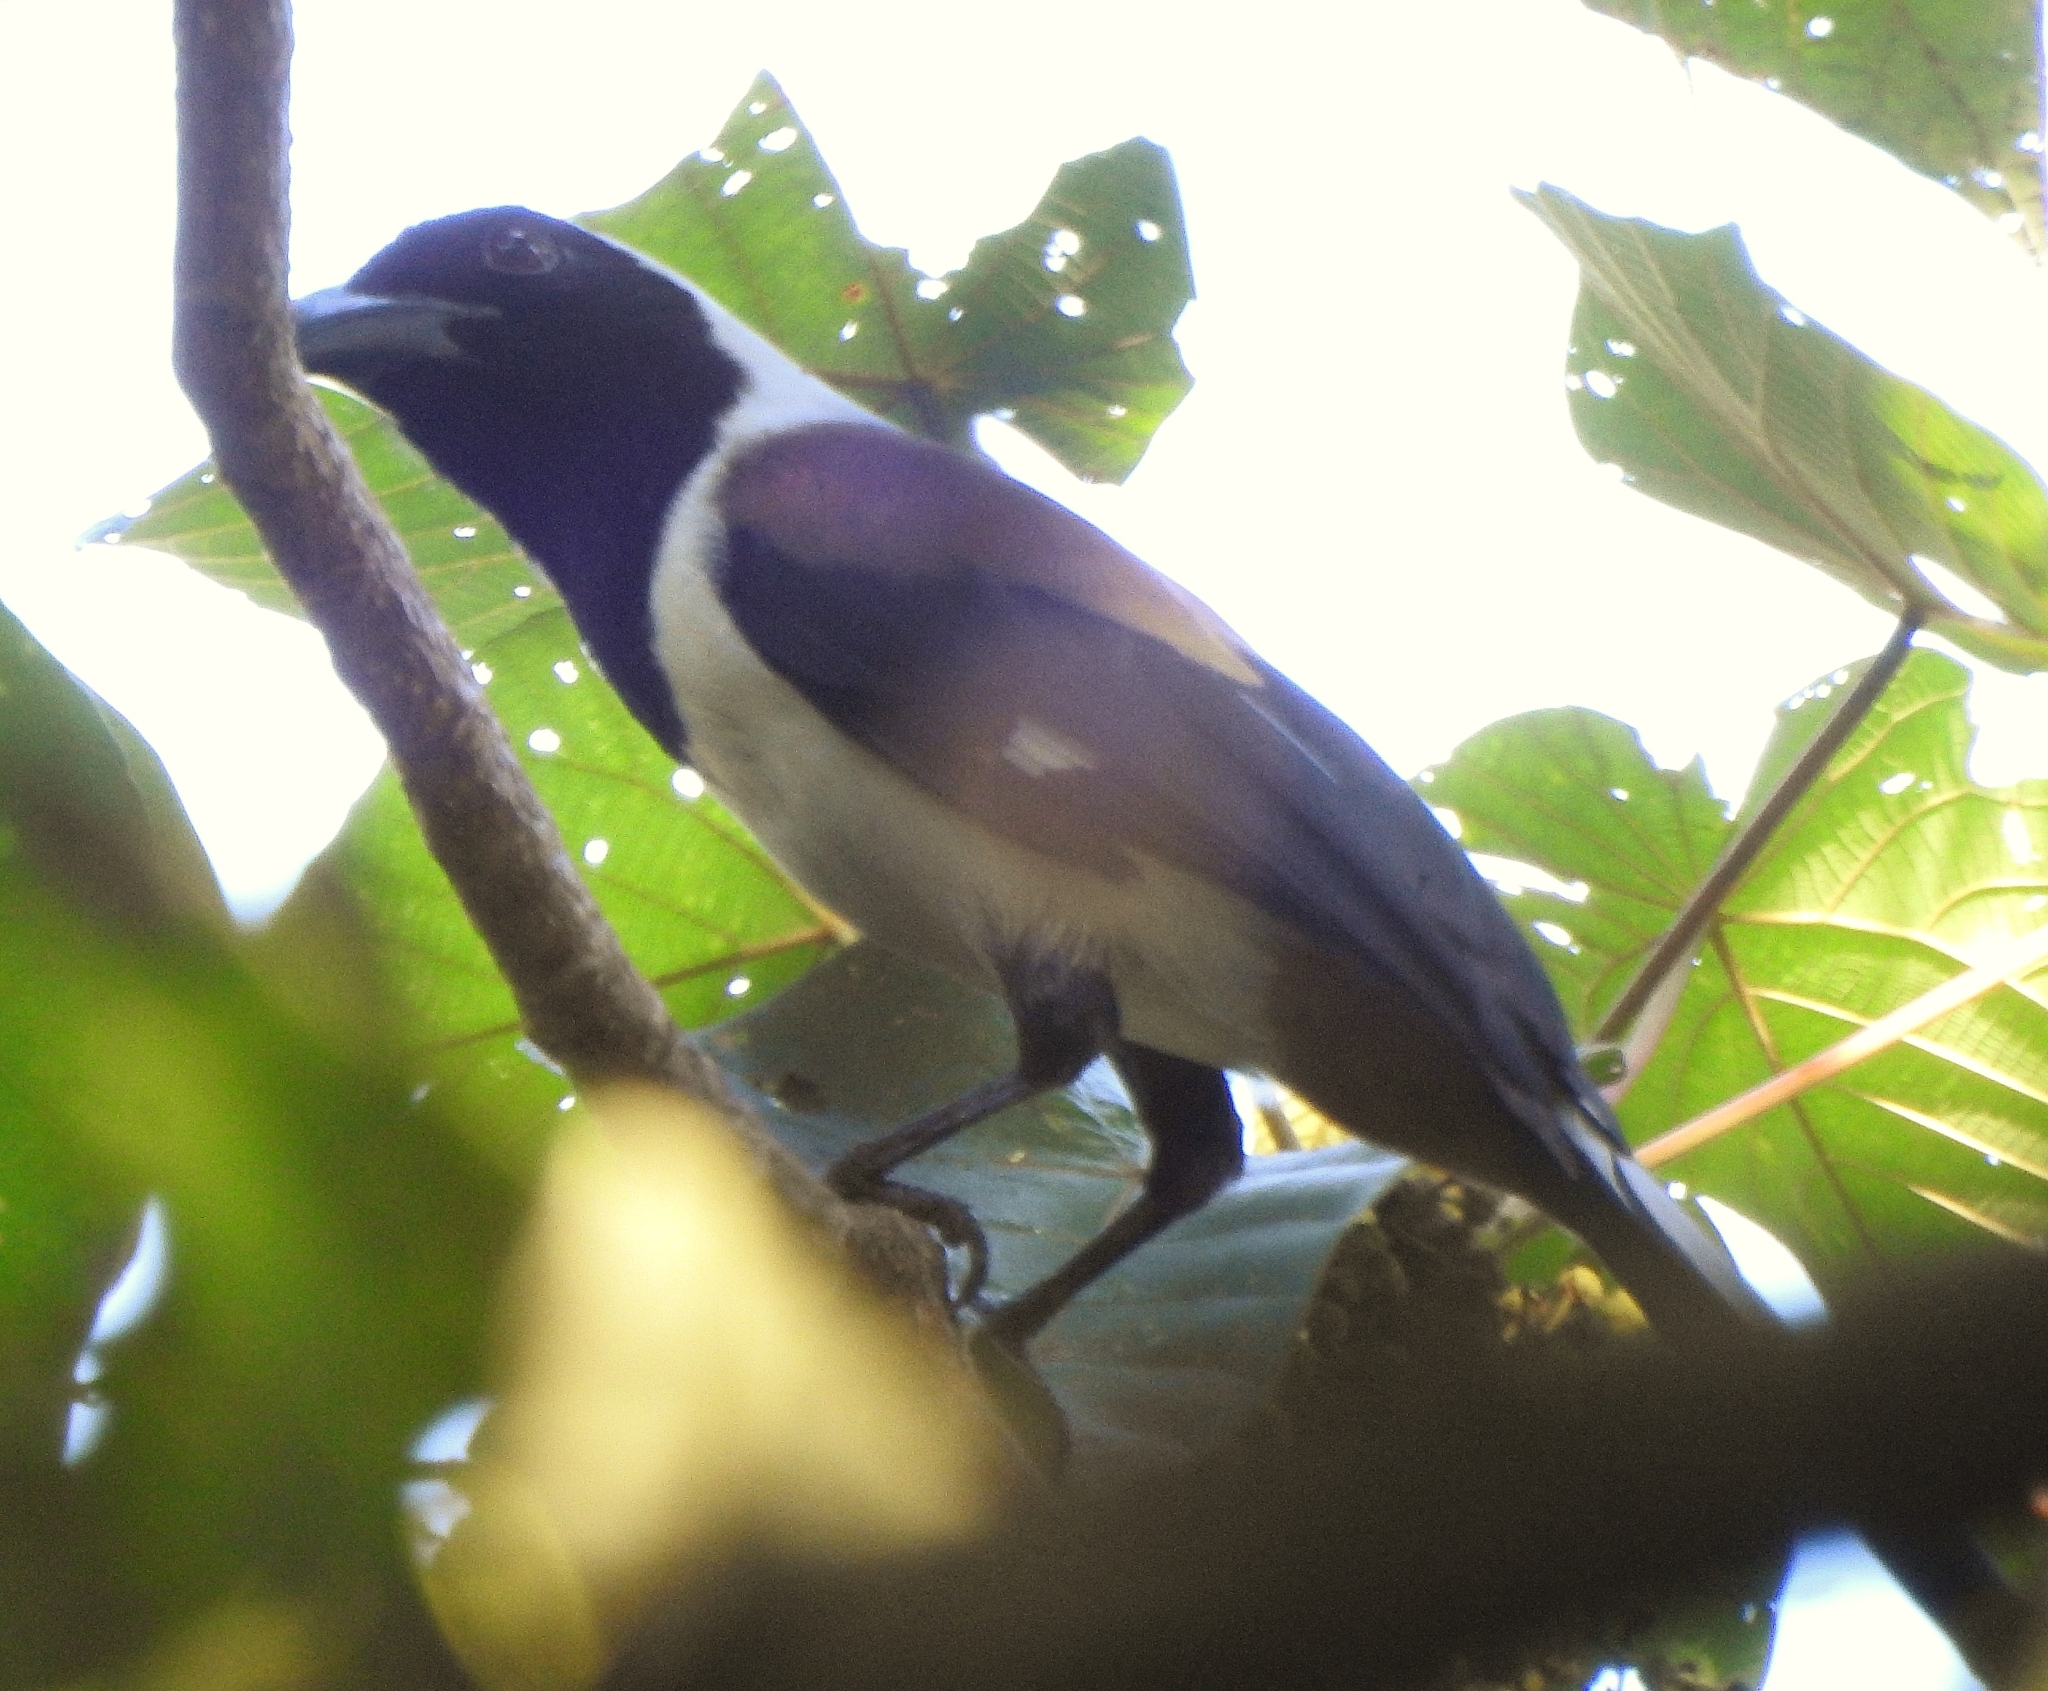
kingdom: Animalia
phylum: Chordata
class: Aves
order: Passeriformes
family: Corvidae
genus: Dendrocitta
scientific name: Dendrocitta leucogastra
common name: White-bellied treepie
